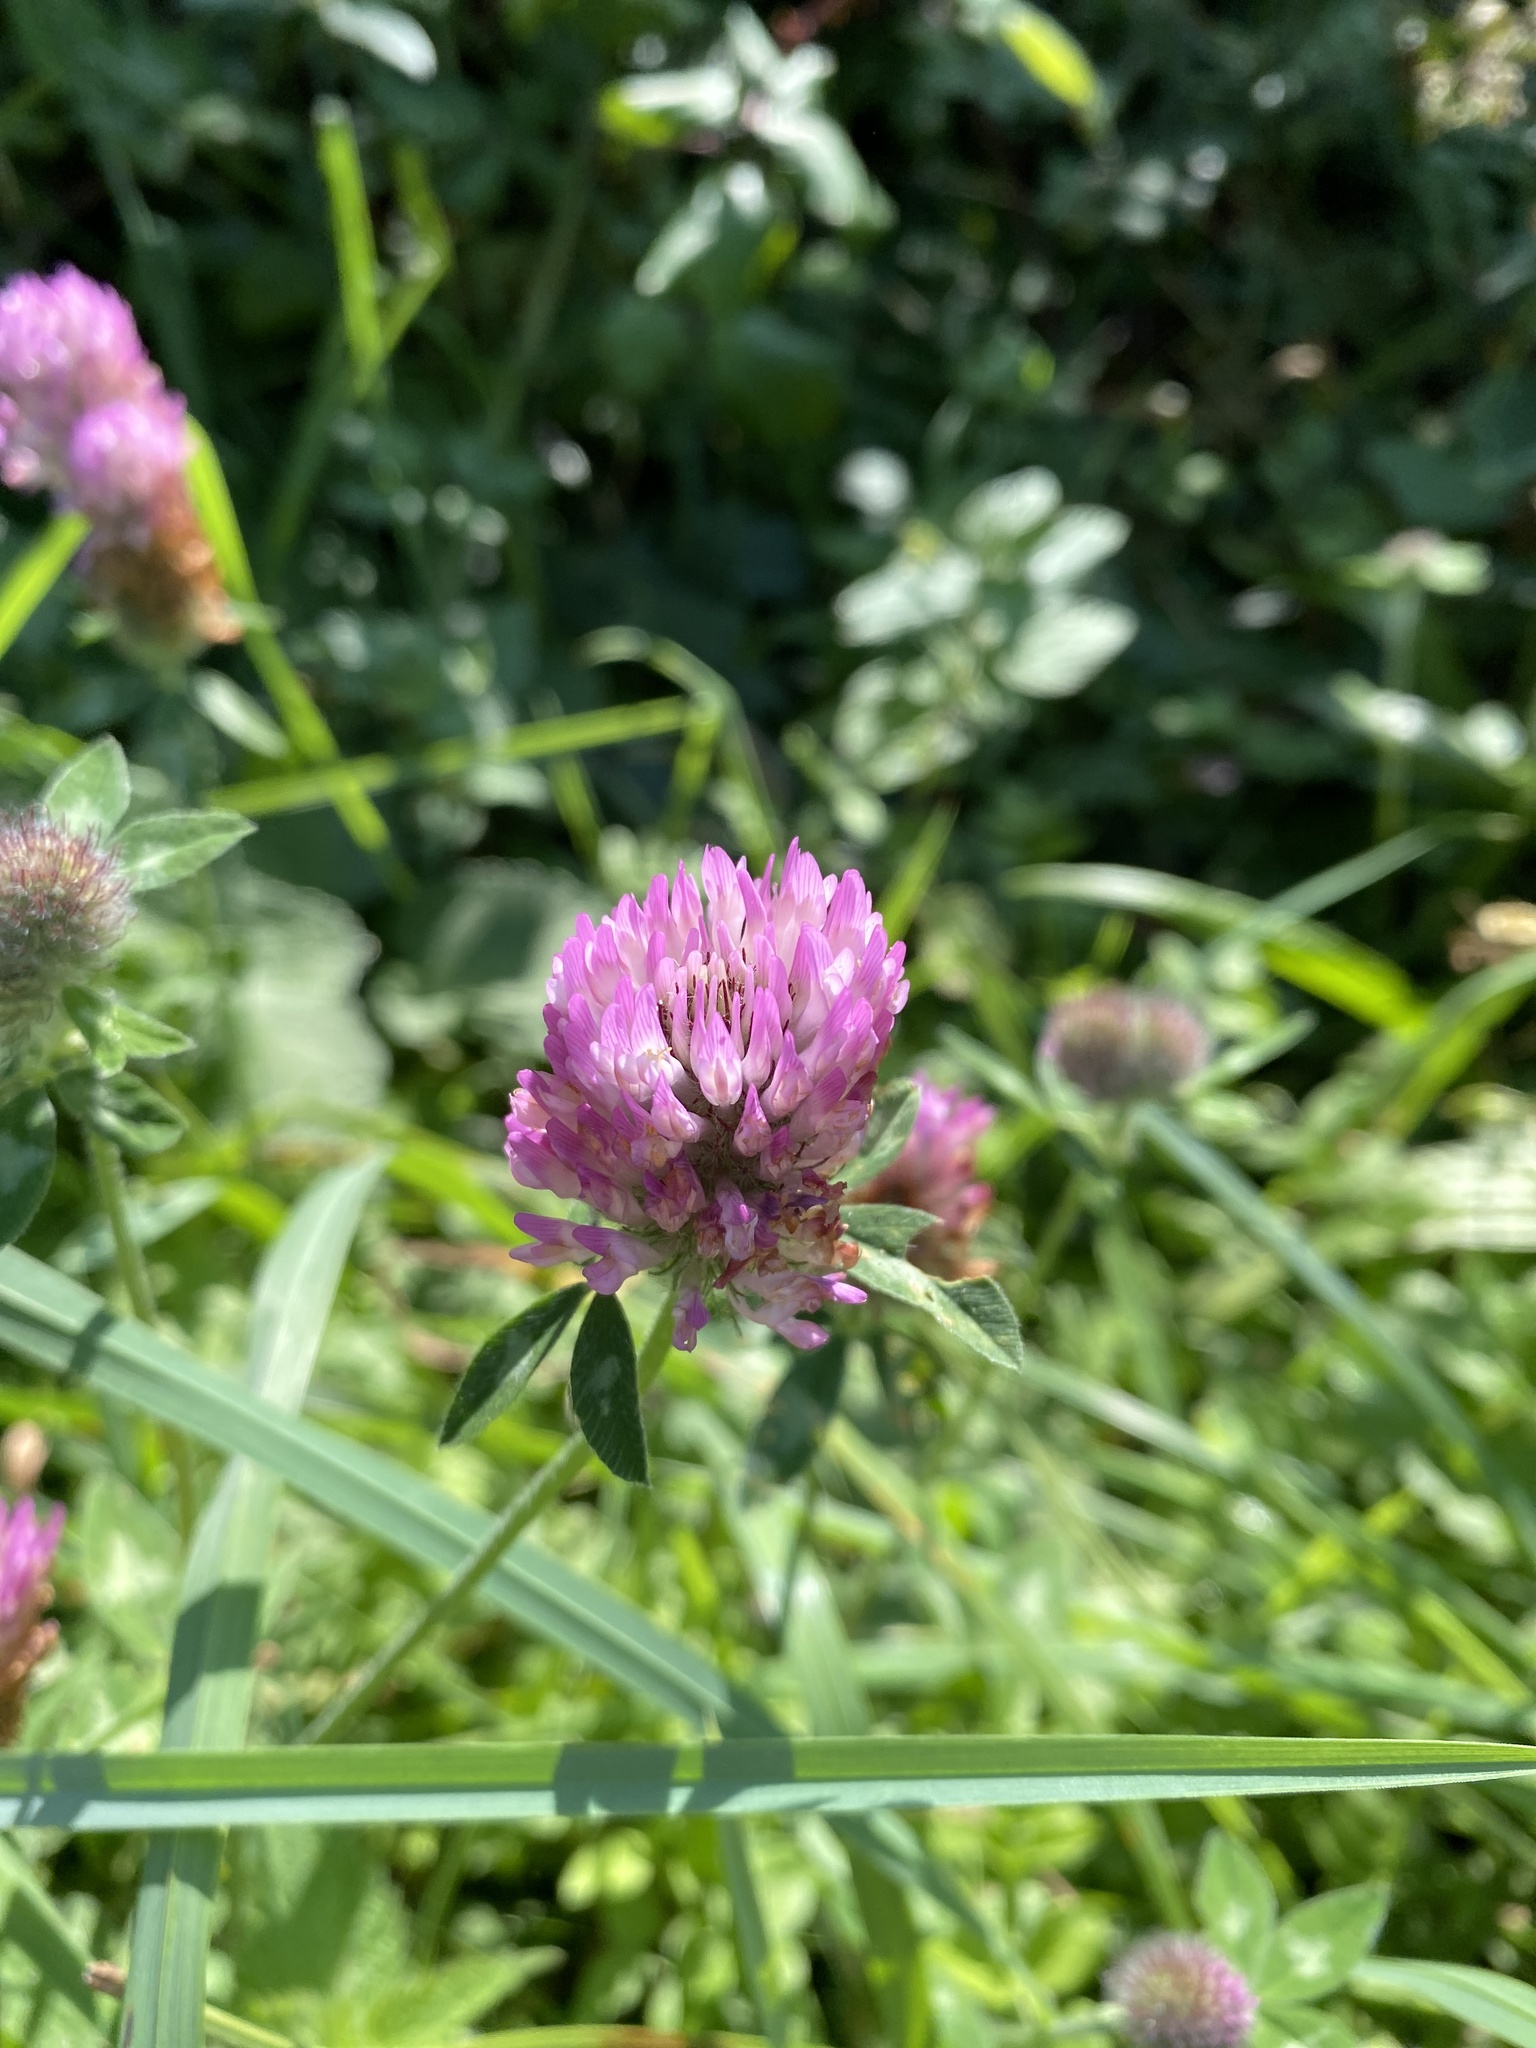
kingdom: Plantae
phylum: Tracheophyta
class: Magnoliopsida
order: Fabales
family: Fabaceae
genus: Trifolium
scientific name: Trifolium pratense
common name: Red clover
